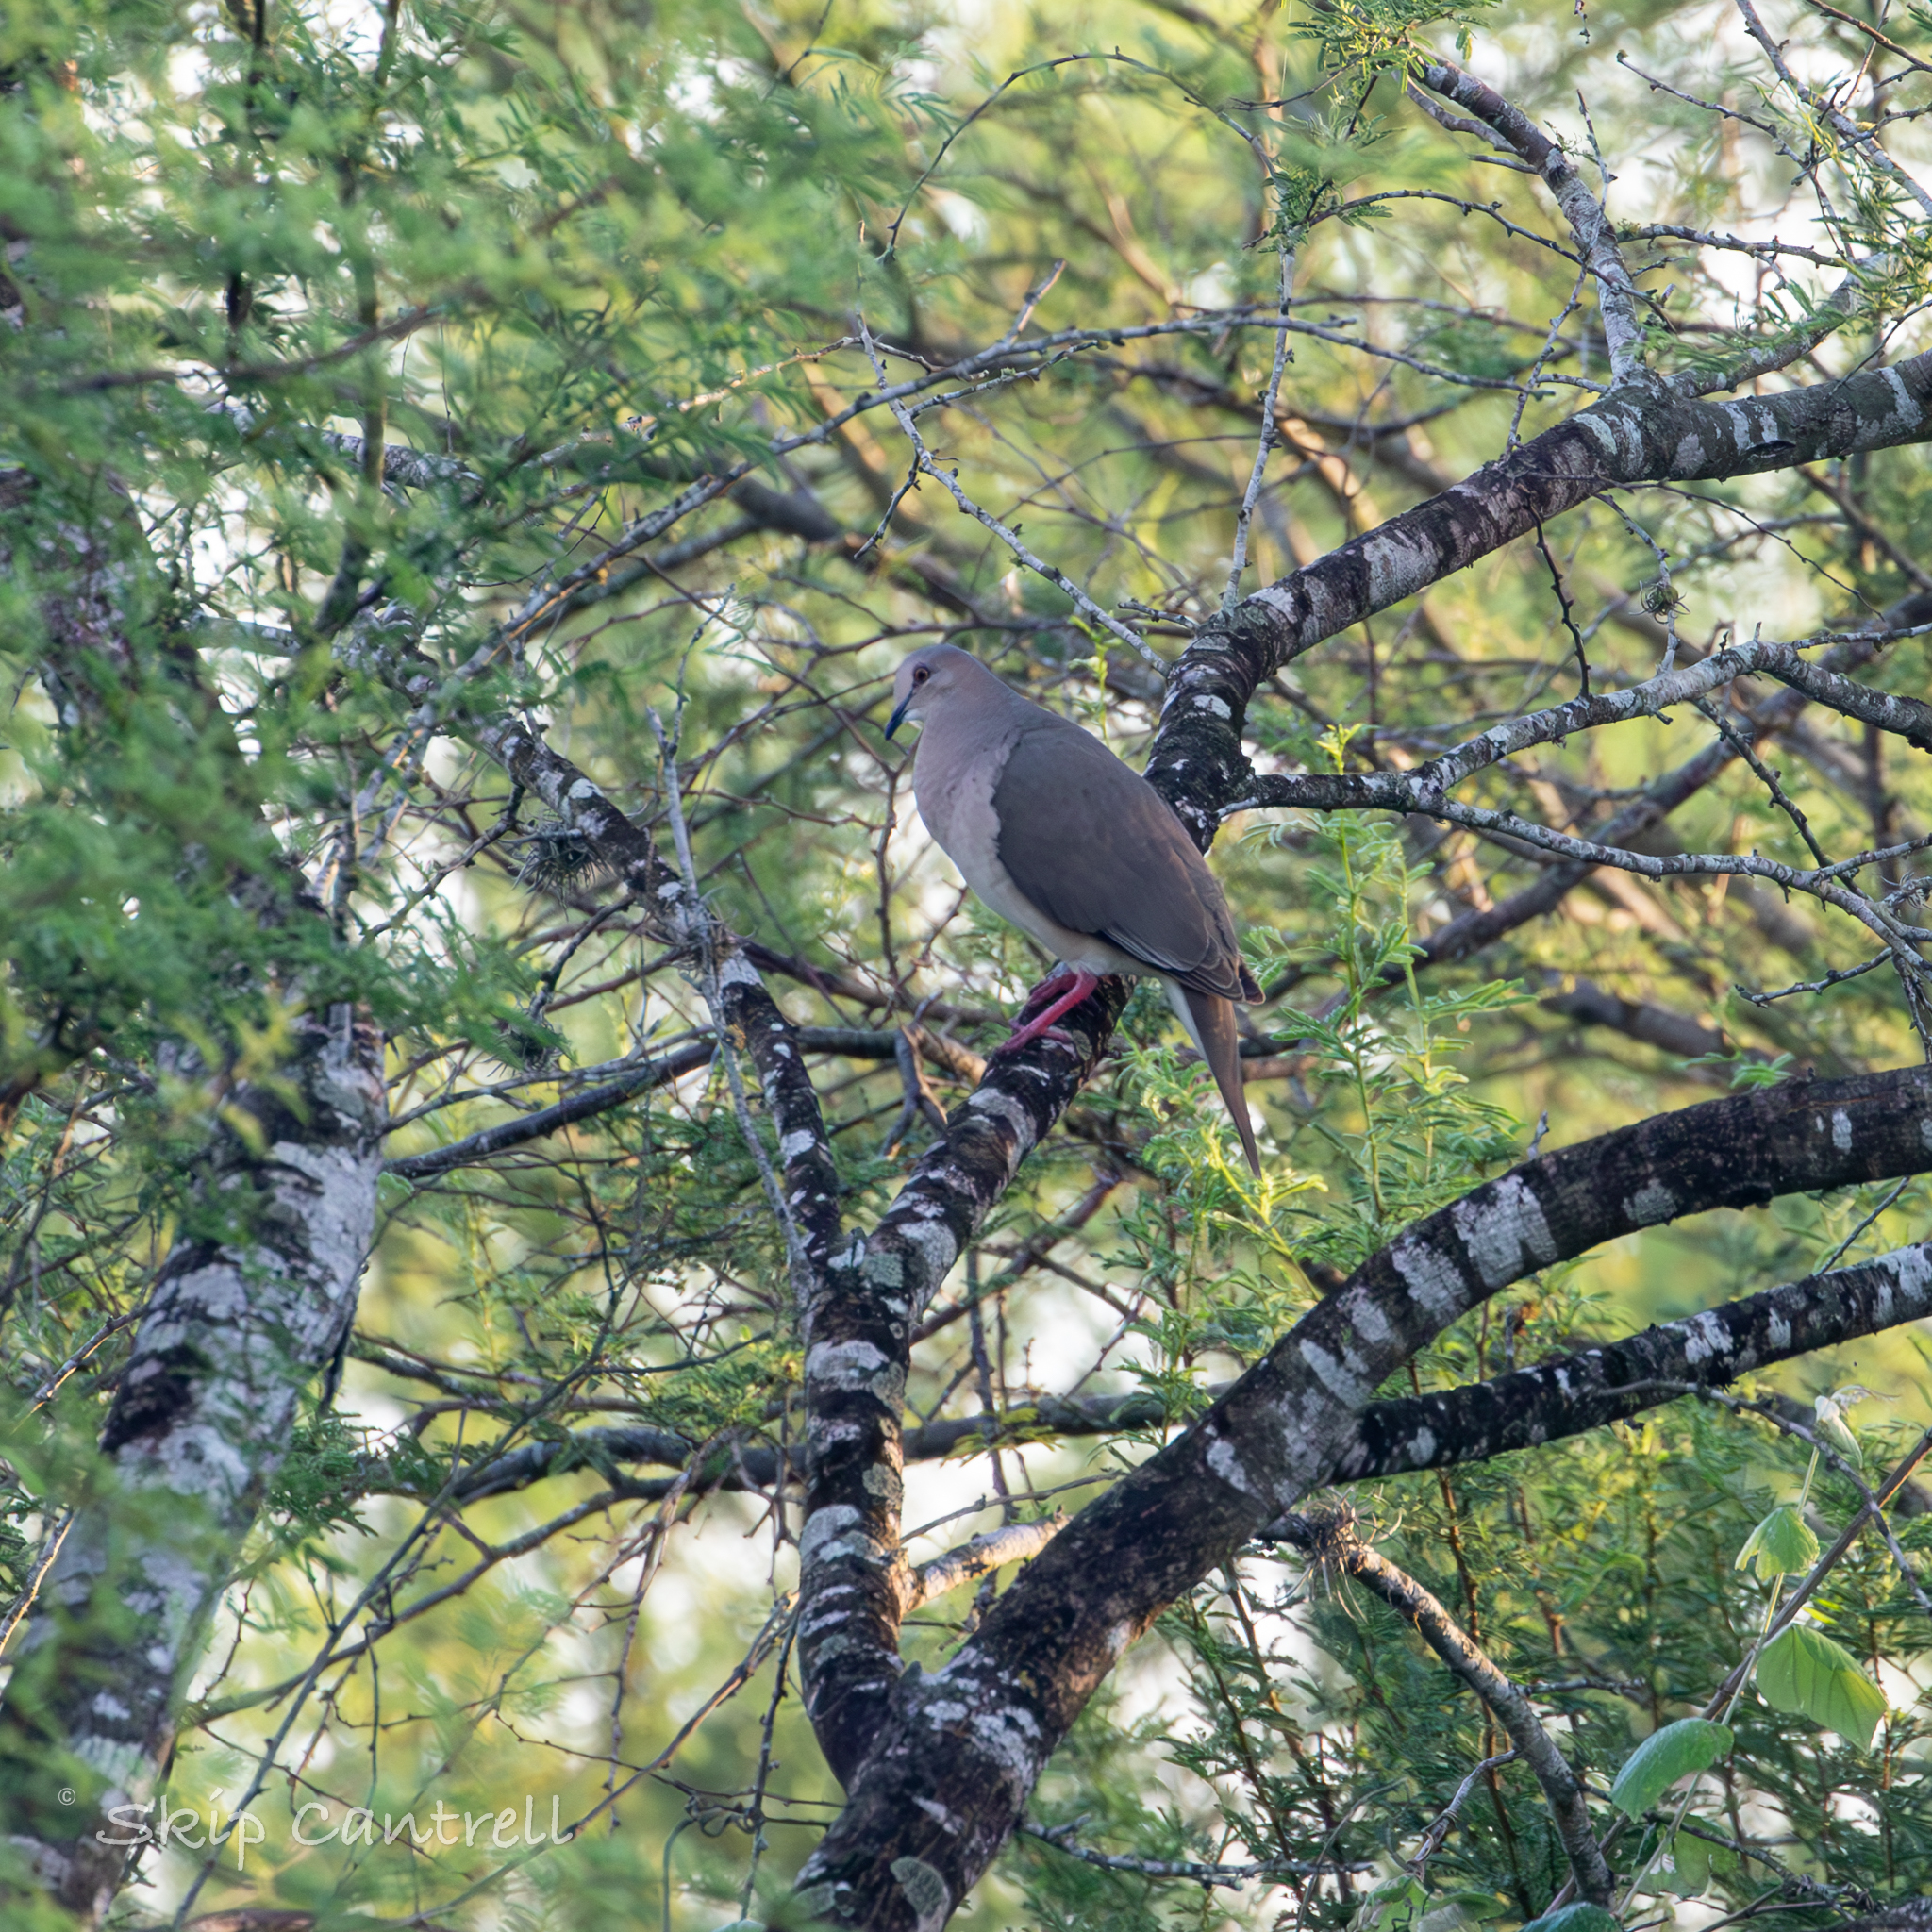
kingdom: Animalia
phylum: Chordata
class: Aves
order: Columbiformes
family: Columbidae
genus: Leptotila
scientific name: Leptotila verreauxi
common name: White-tipped dove
